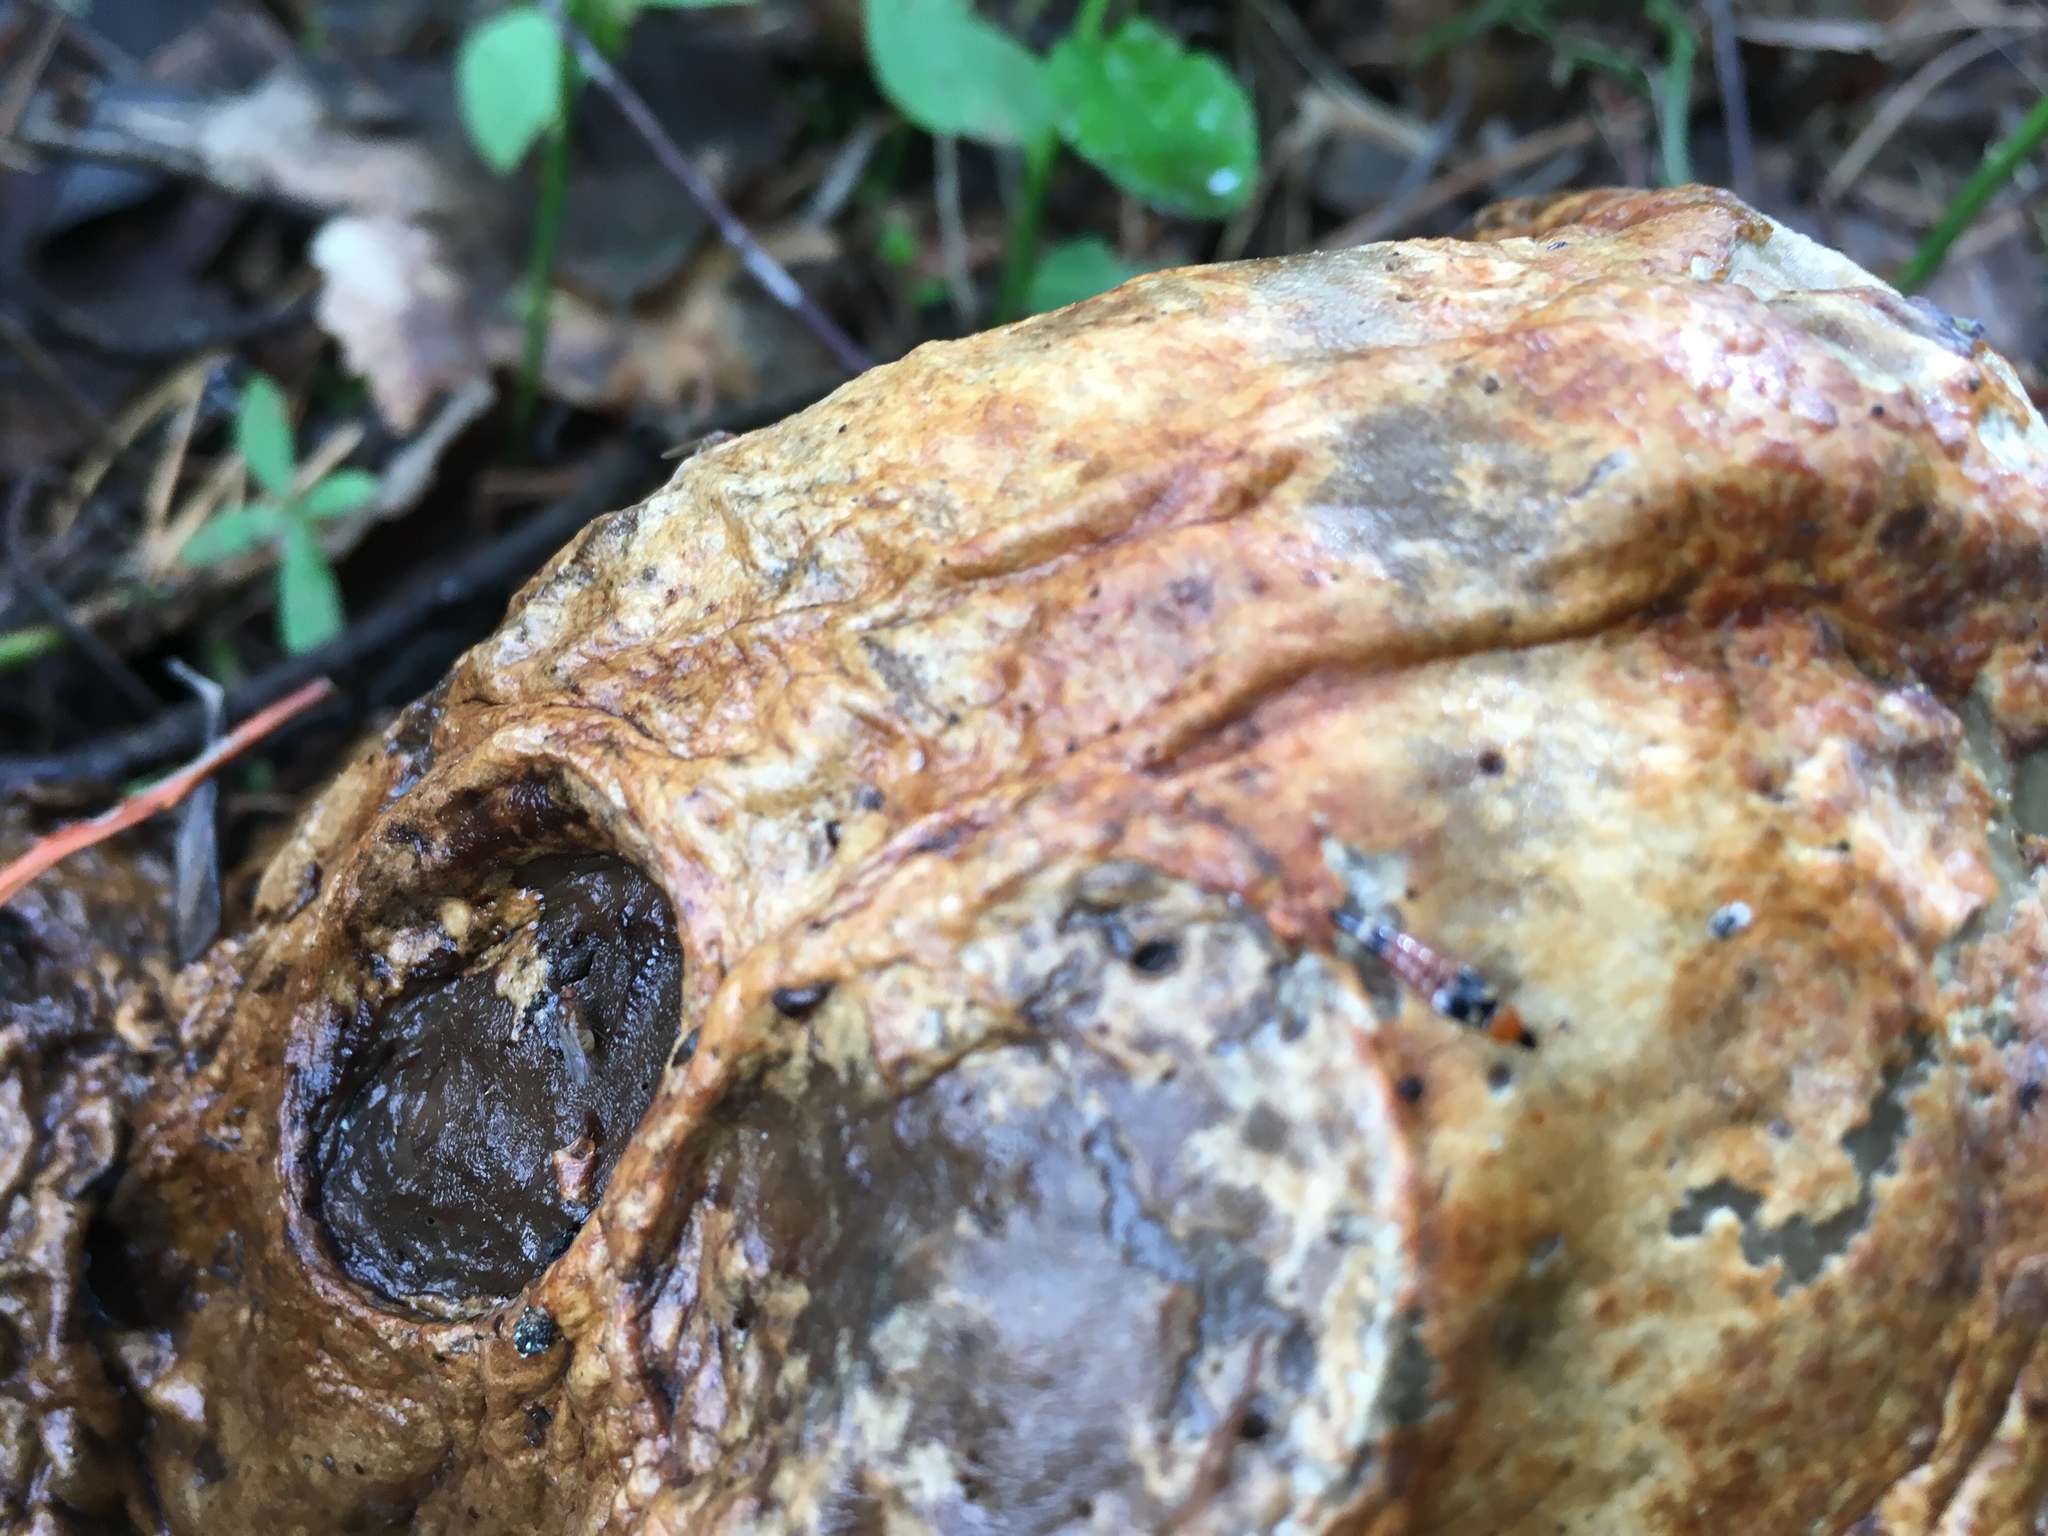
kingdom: Animalia
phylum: Arthropoda
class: Insecta
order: Coleoptera
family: Staphylinidae
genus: Bobitobus
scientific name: Bobitobus lunulatus
